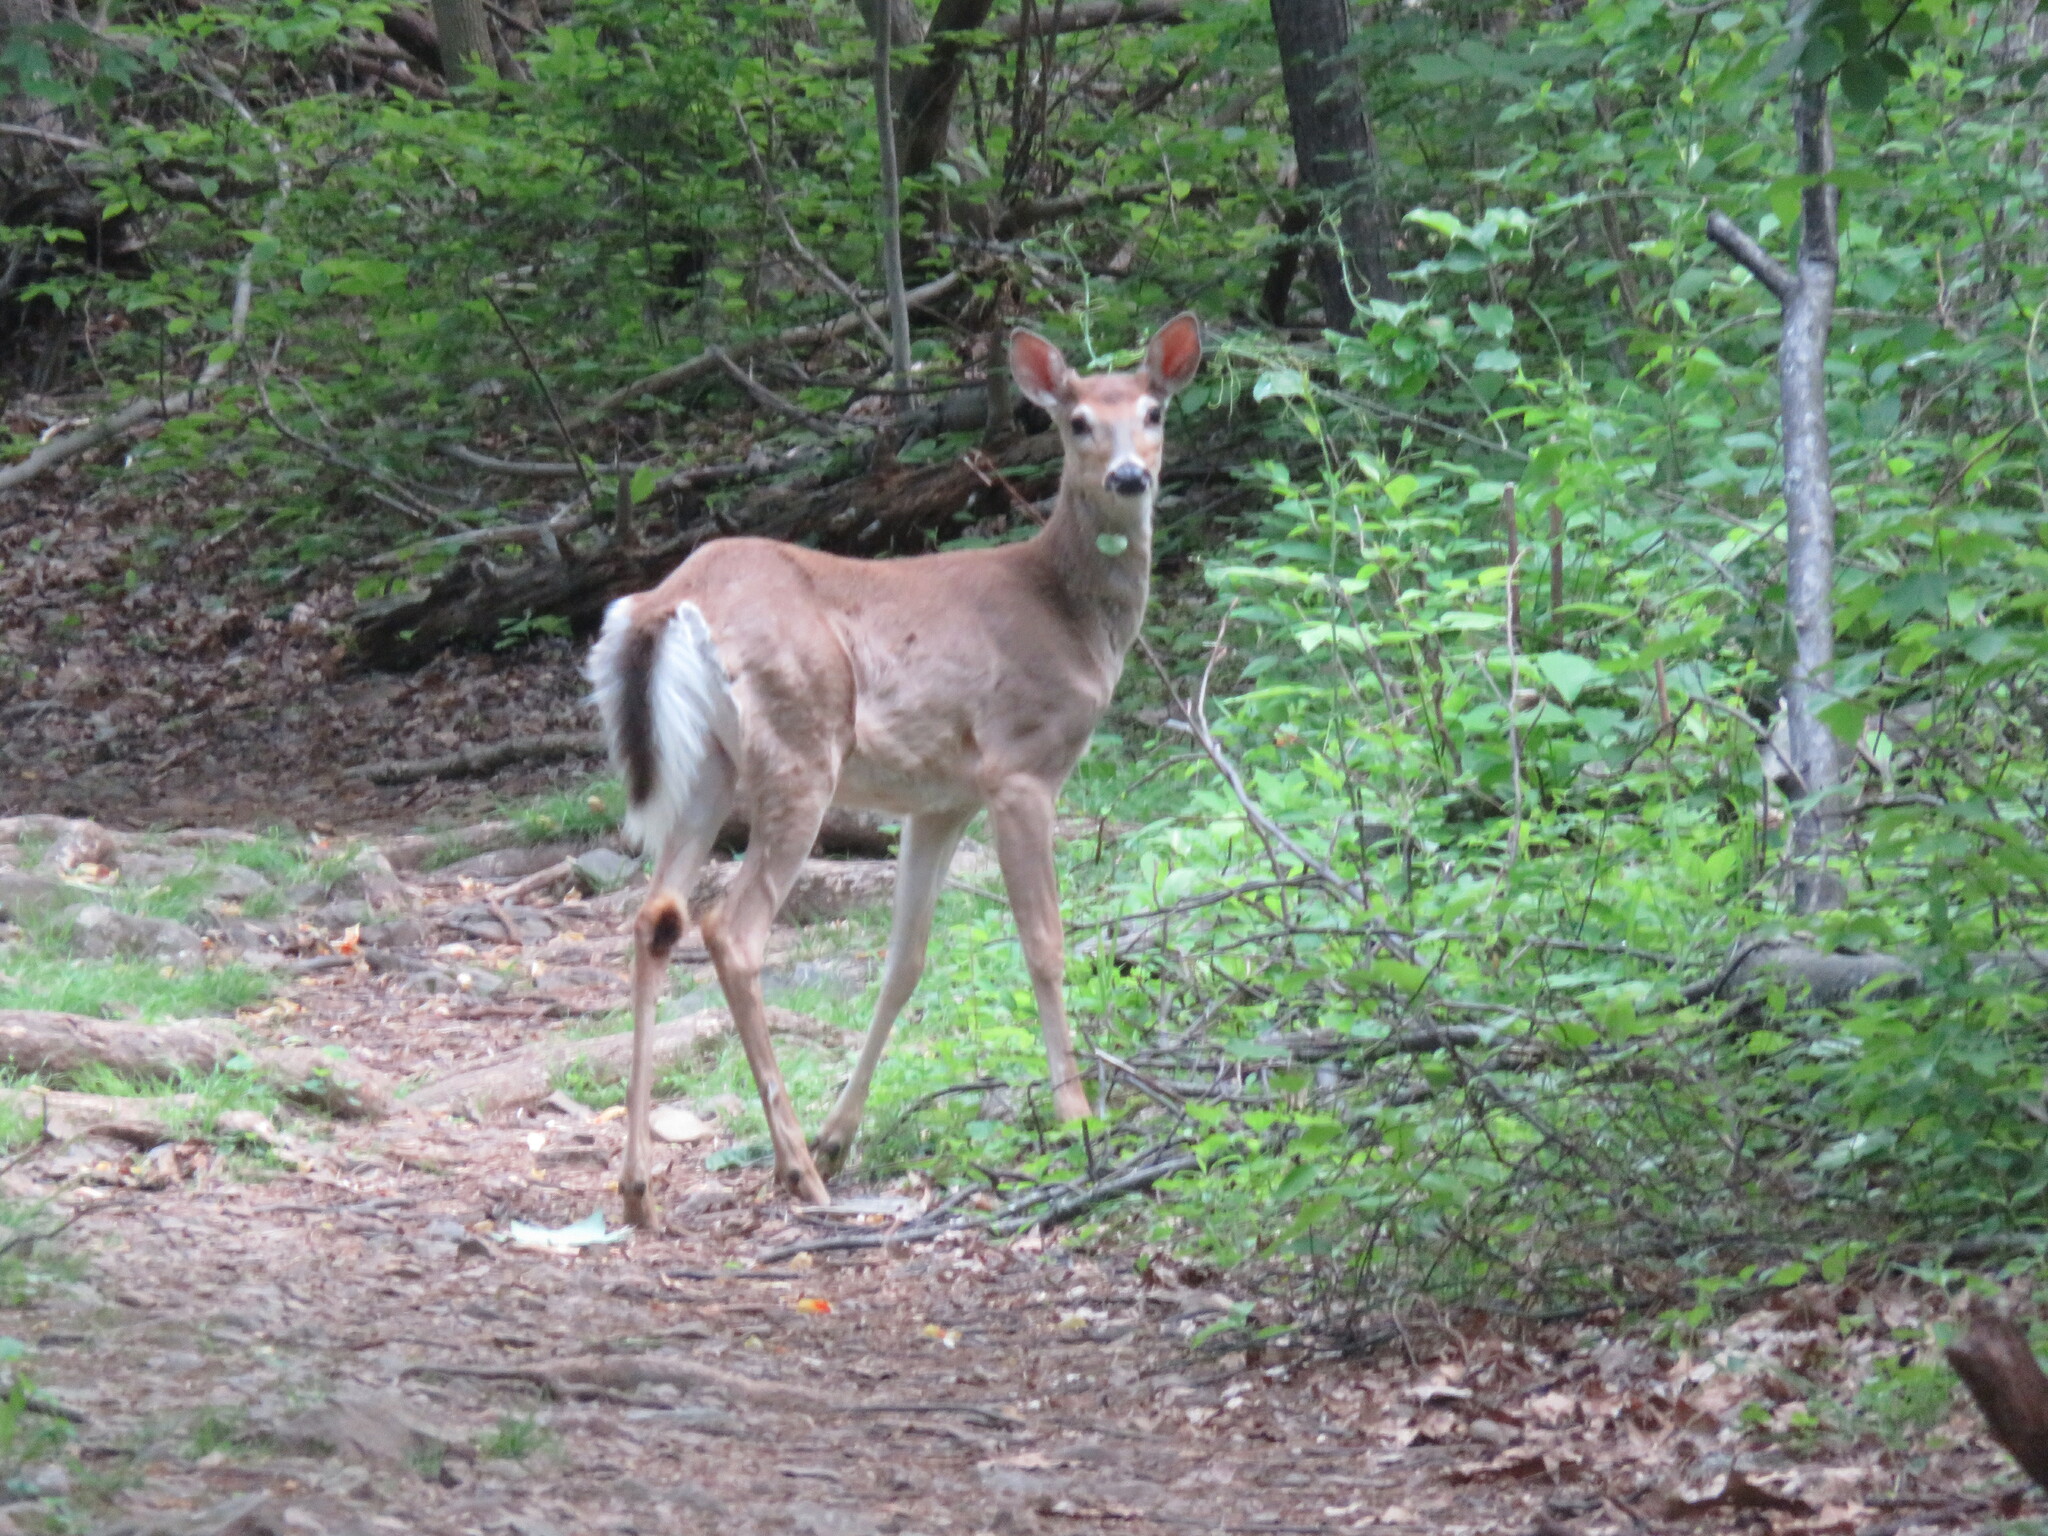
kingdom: Animalia
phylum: Chordata
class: Mammalia
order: Artiodactyla
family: Cervidae
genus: Odocoileus
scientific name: Odocoileus virginianus
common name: White-tailed deer
